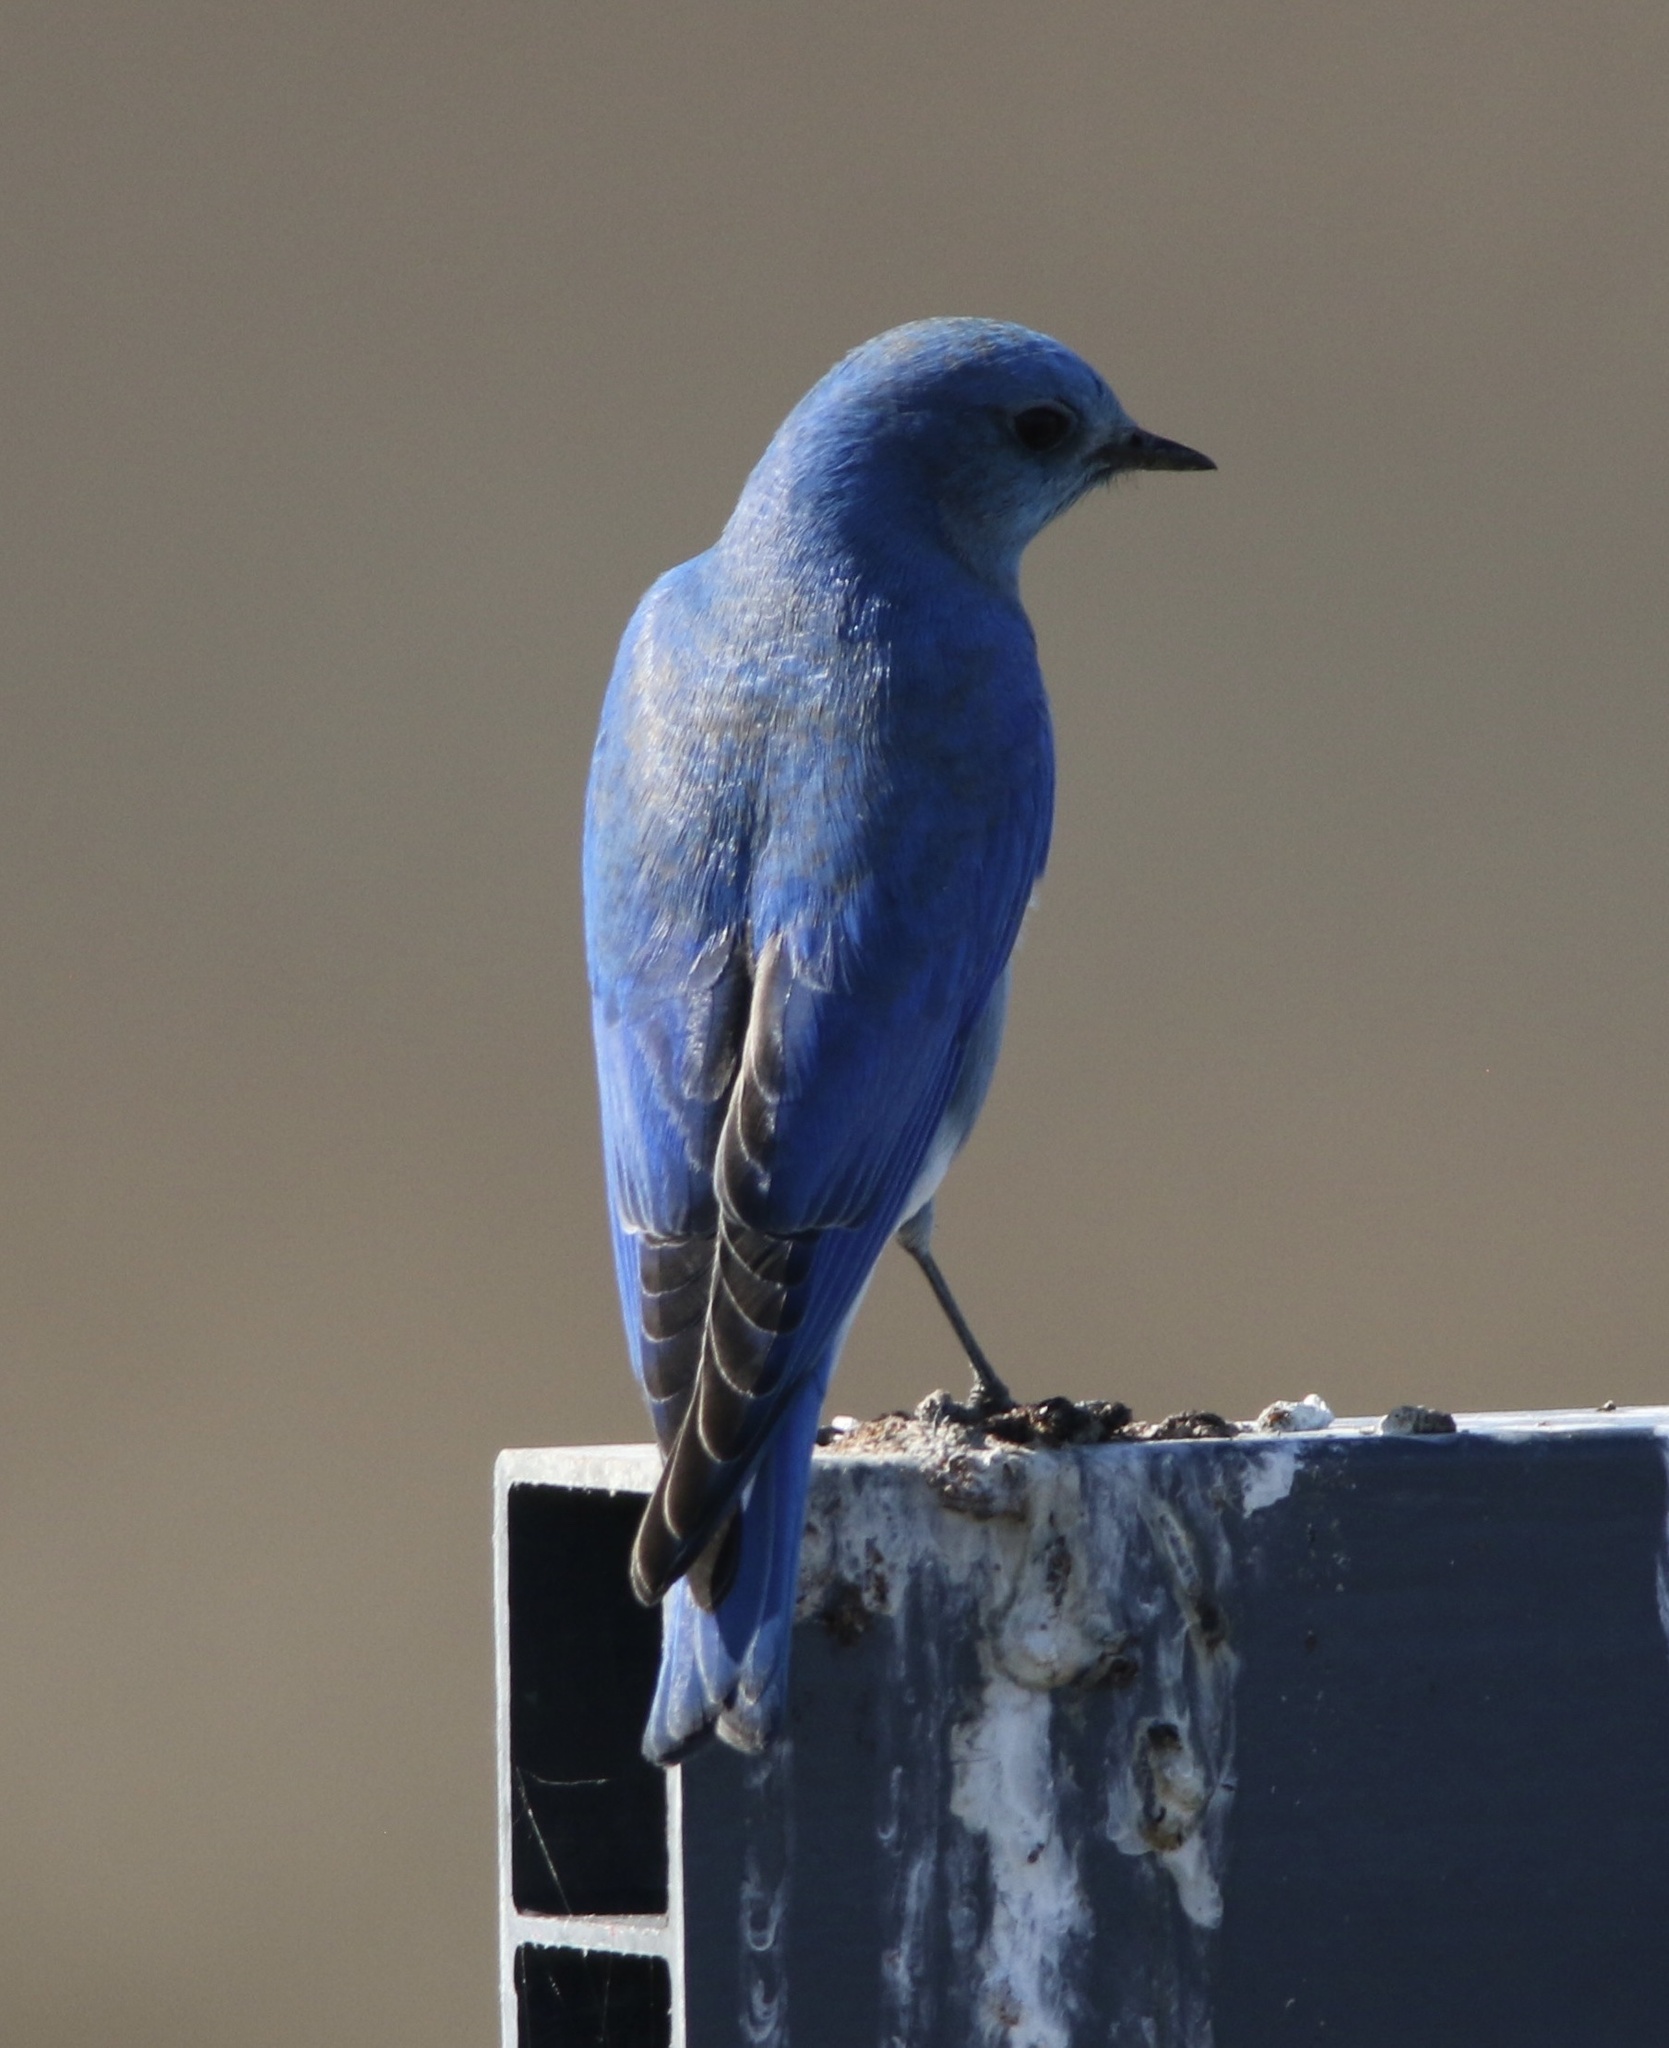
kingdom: Animalia
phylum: Chordata
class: Aves
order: Passeriformes
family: Turdidae
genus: Sialia
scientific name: Sialia currucoides
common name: Mountain bluebird
